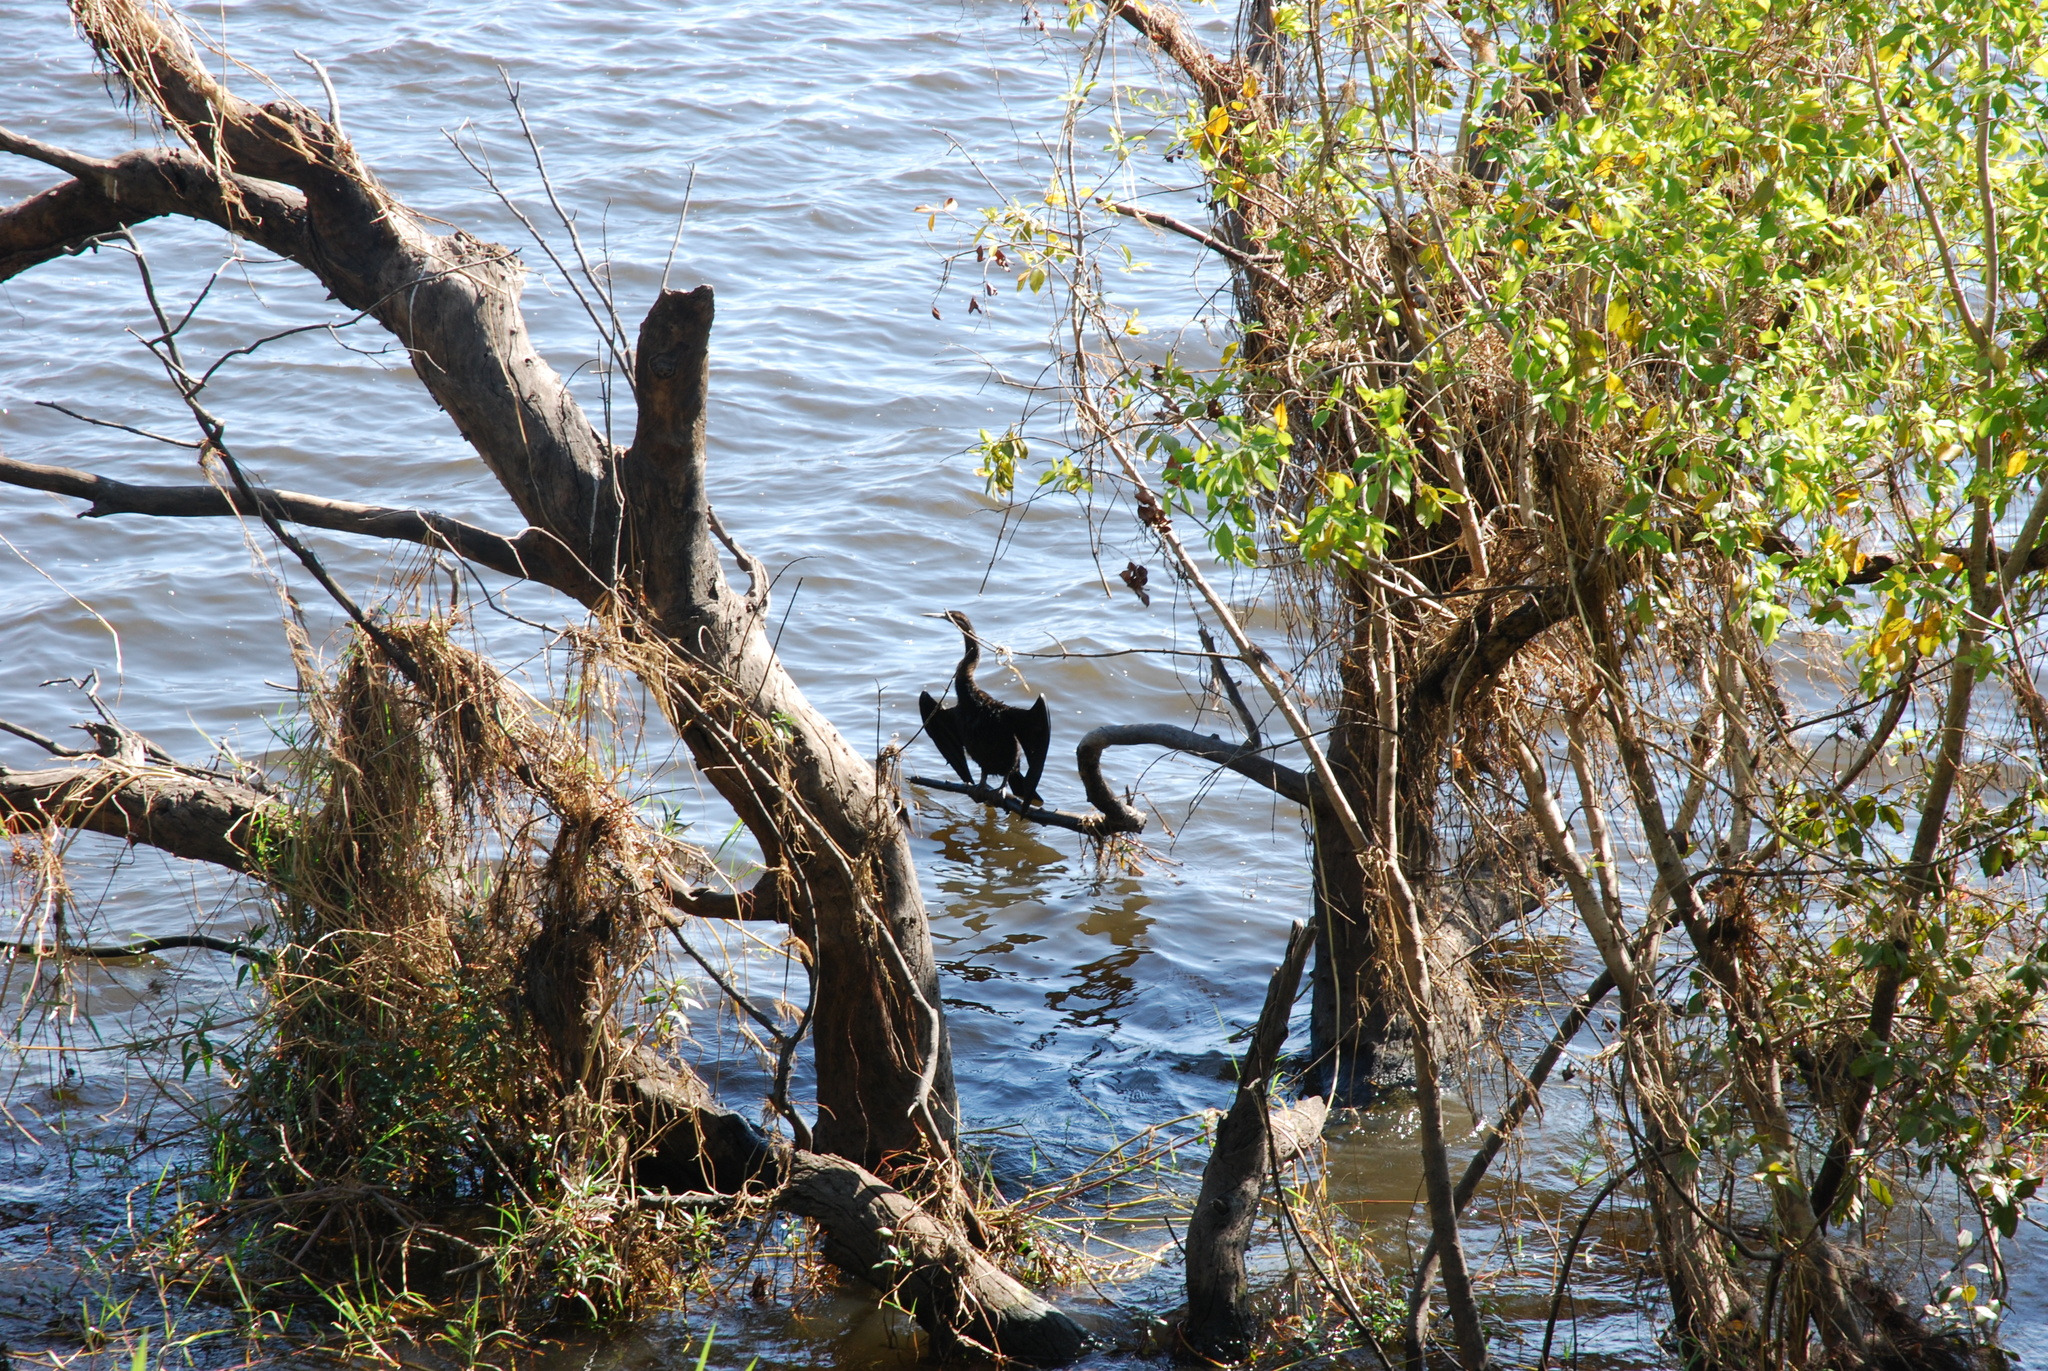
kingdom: Animalia
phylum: Chordata
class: Aves
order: Suliformes
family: Anhingidae
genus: Anhinga
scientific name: Anhinga rufa
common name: African darter
